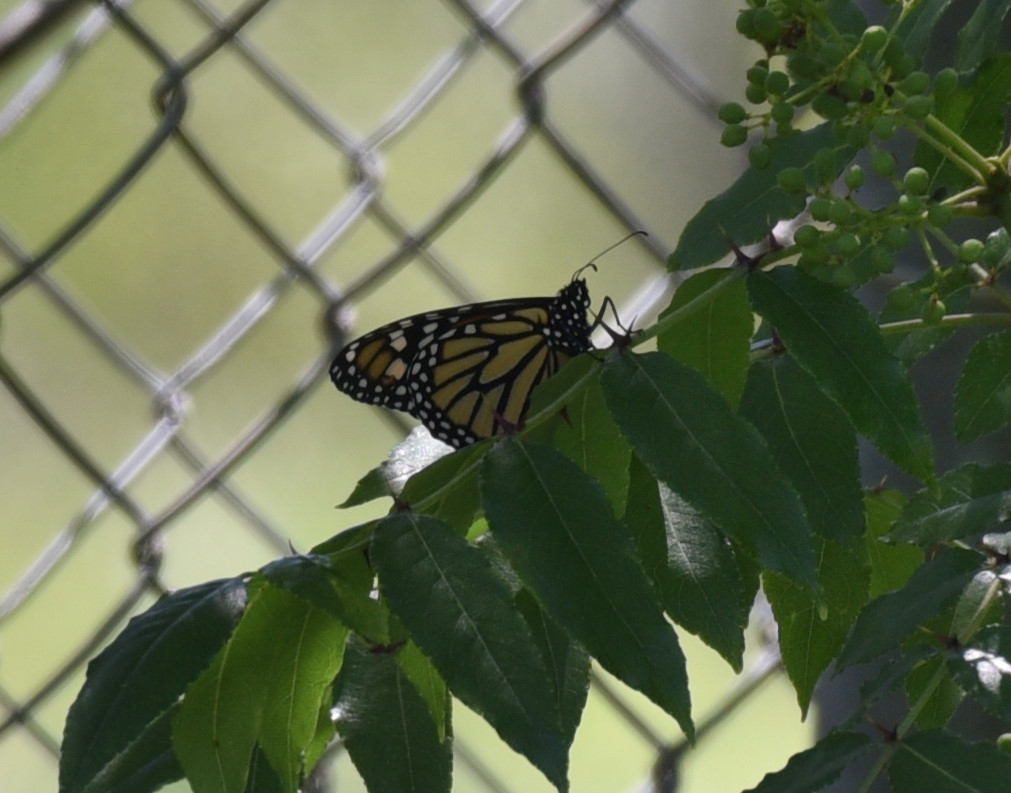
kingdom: Animalia
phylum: Arthropoda
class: Insecta
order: Lepidoptera
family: Nymphalidae
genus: Danaus
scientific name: Danaus plexippus
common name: Monarch
